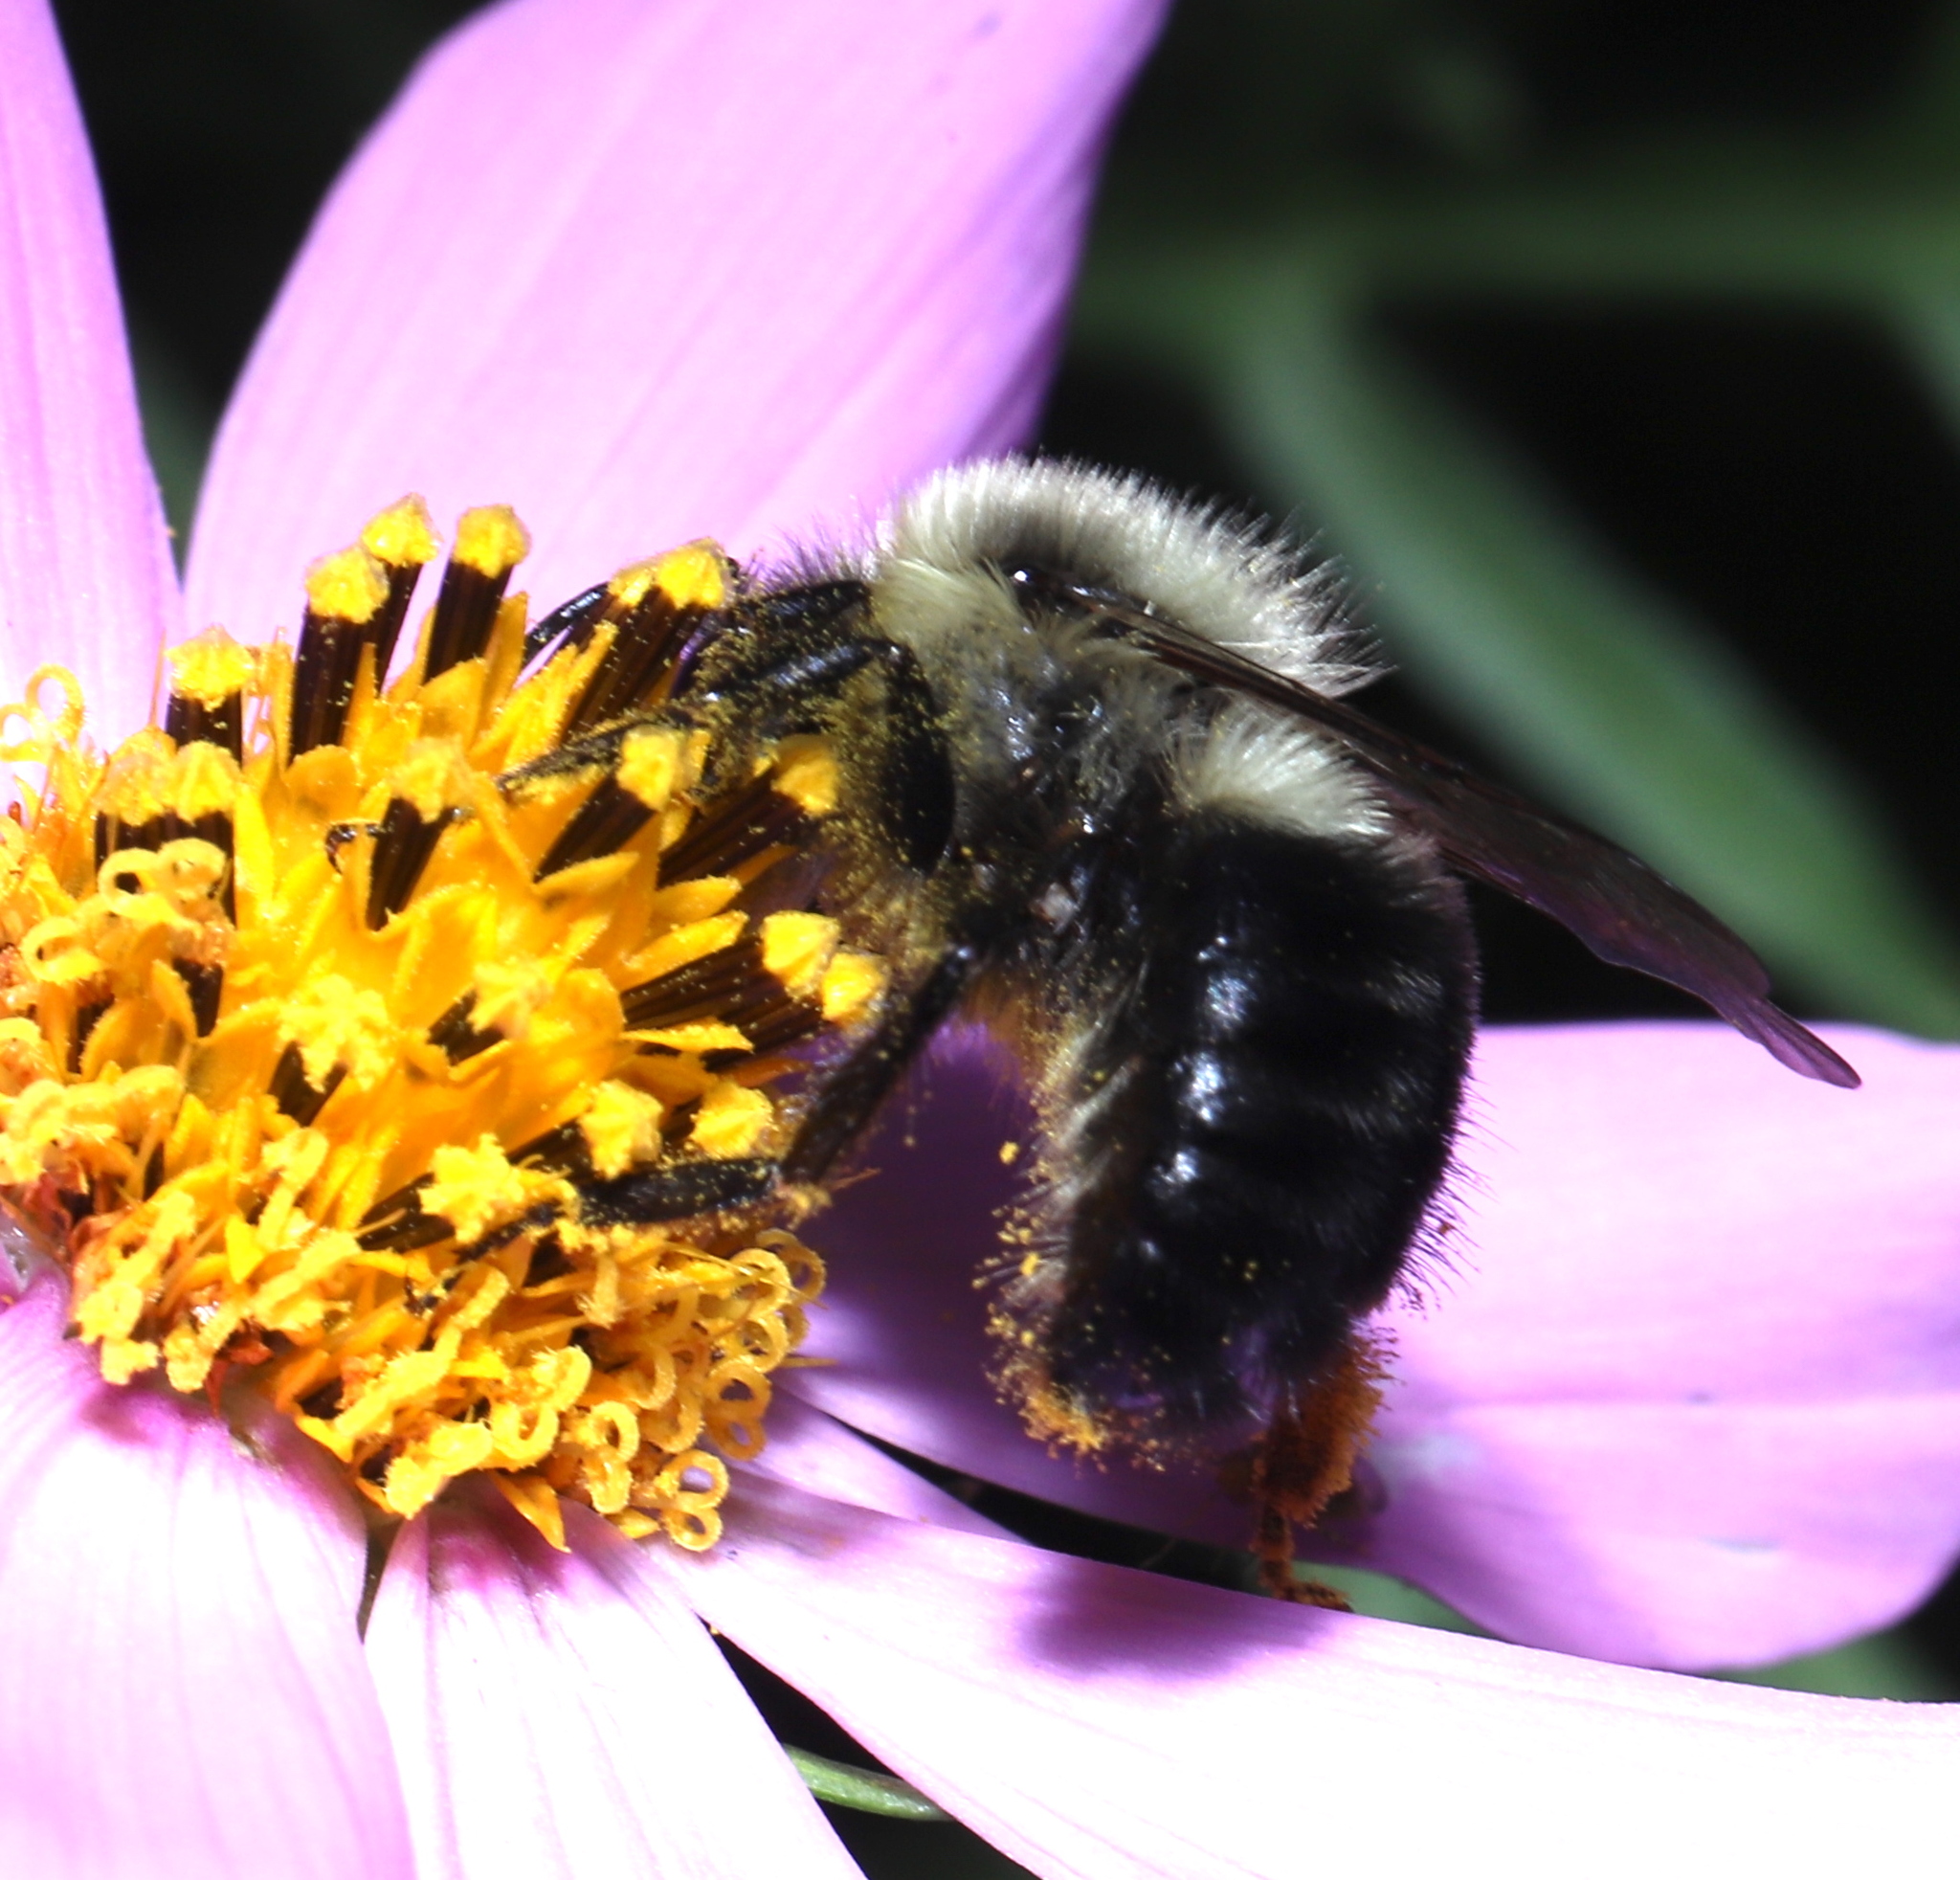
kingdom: Animalia
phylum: Arthropoda
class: Insecta
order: Hymenoptera
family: Apidae
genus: Bombus
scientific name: Bombus impatiens
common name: Common eastern bumble bee
